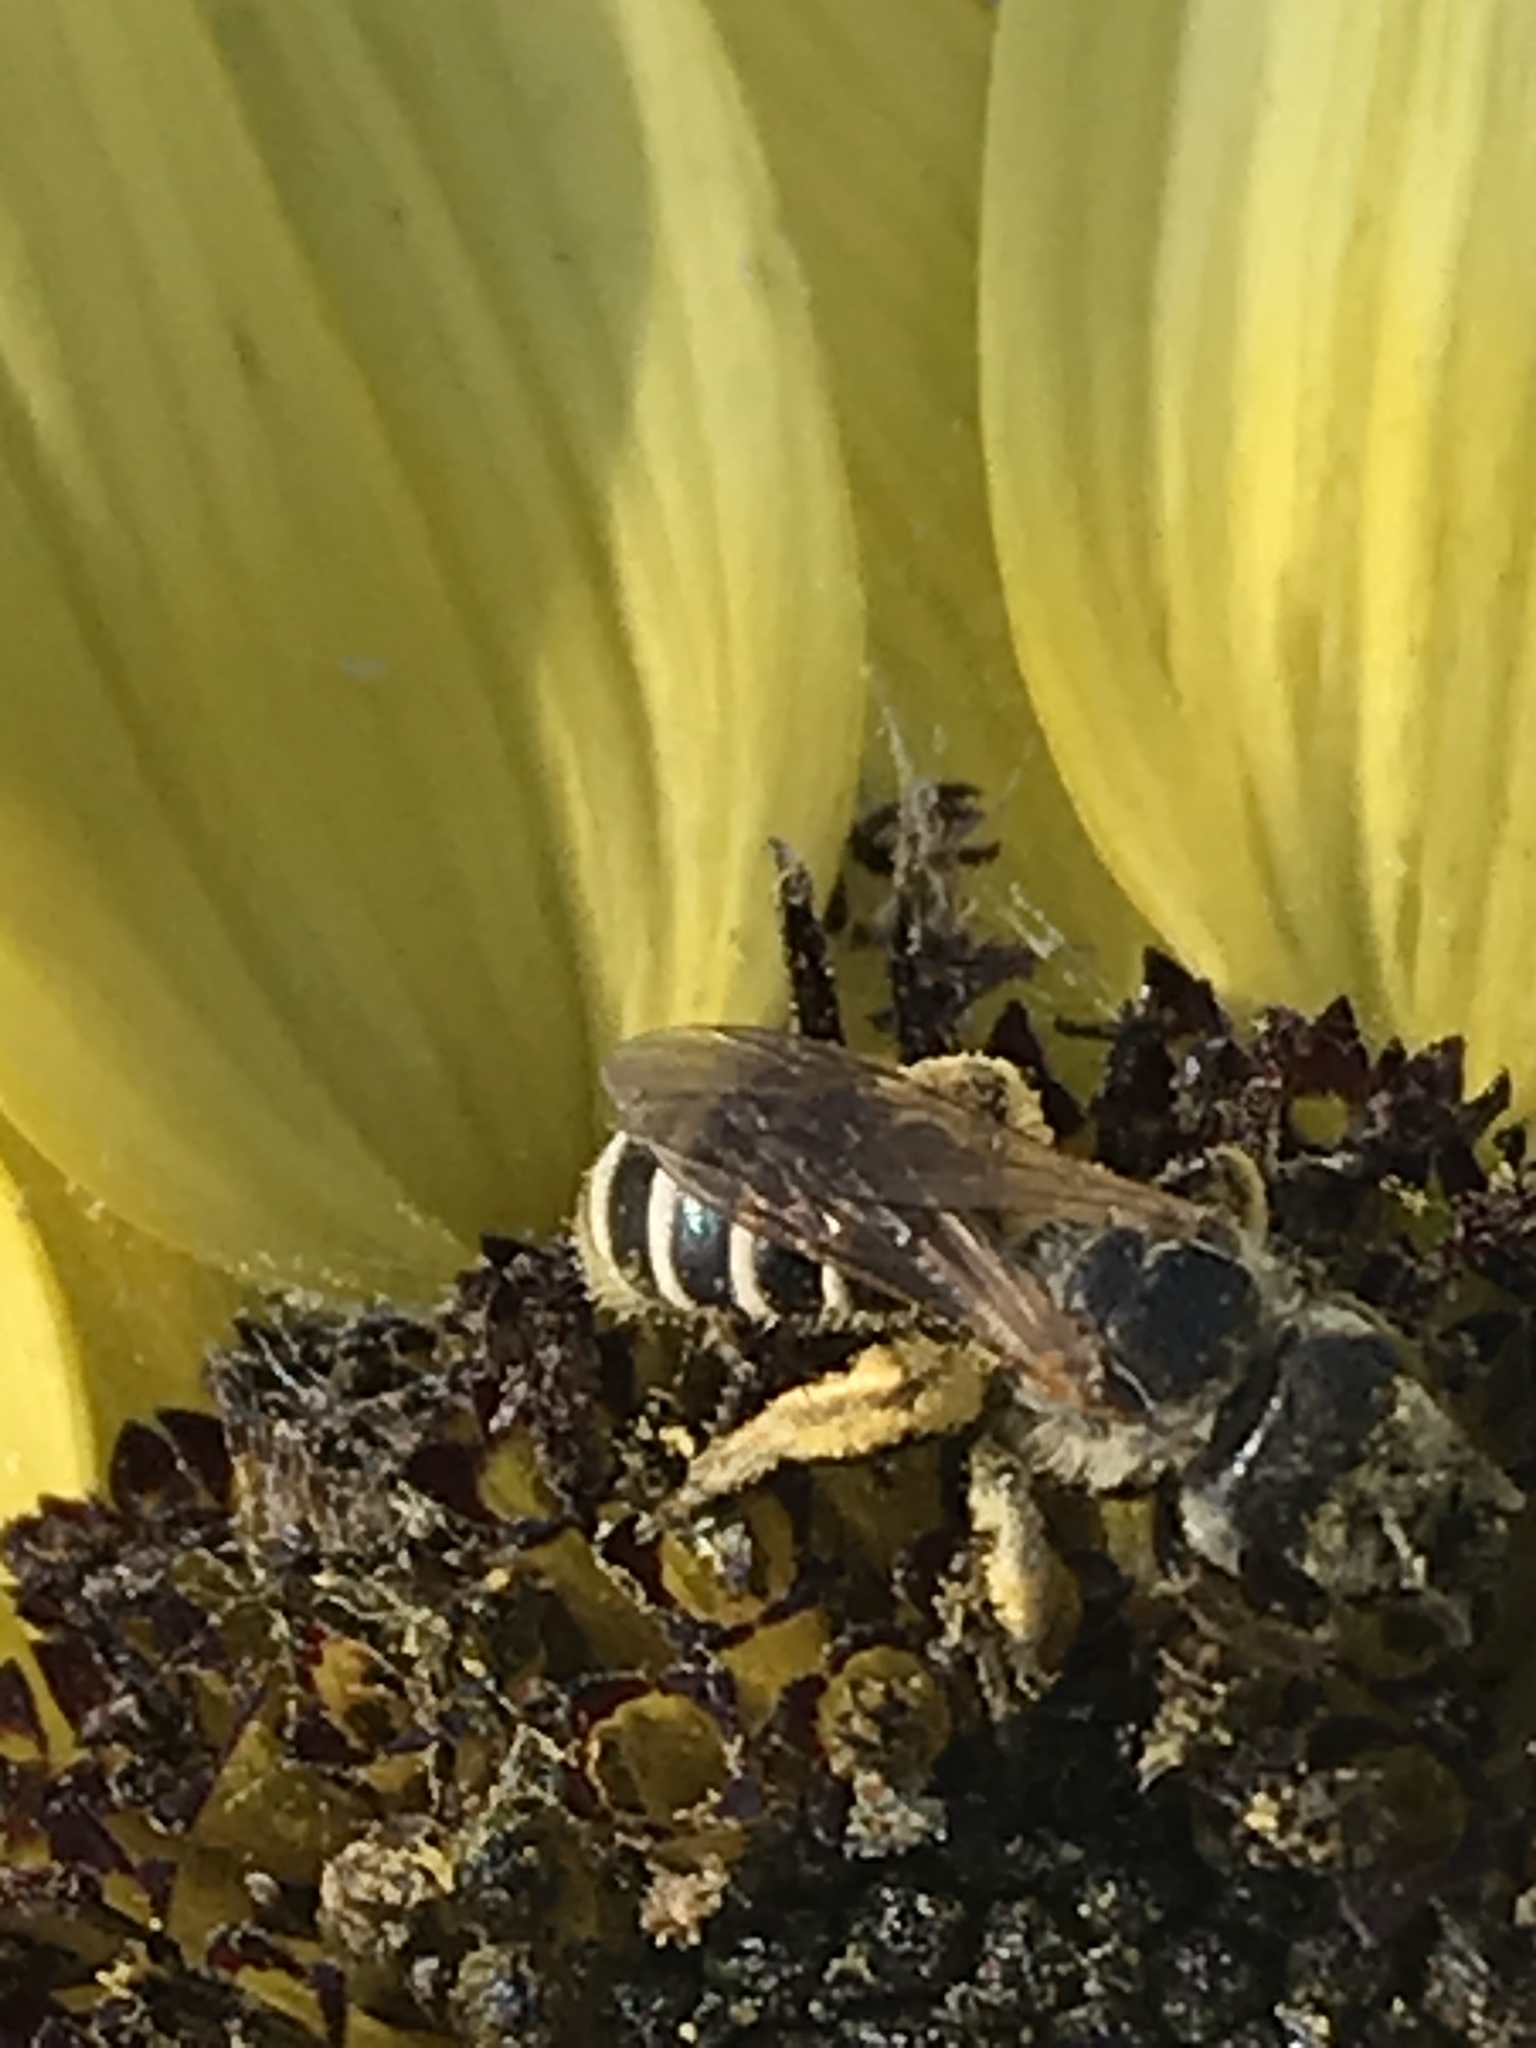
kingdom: Animalia
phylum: Arthropoda
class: Insecta
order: Hymenoptera
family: Halictidae
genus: Halictus
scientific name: Halictus ligatus
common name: Ligated furrow bee
